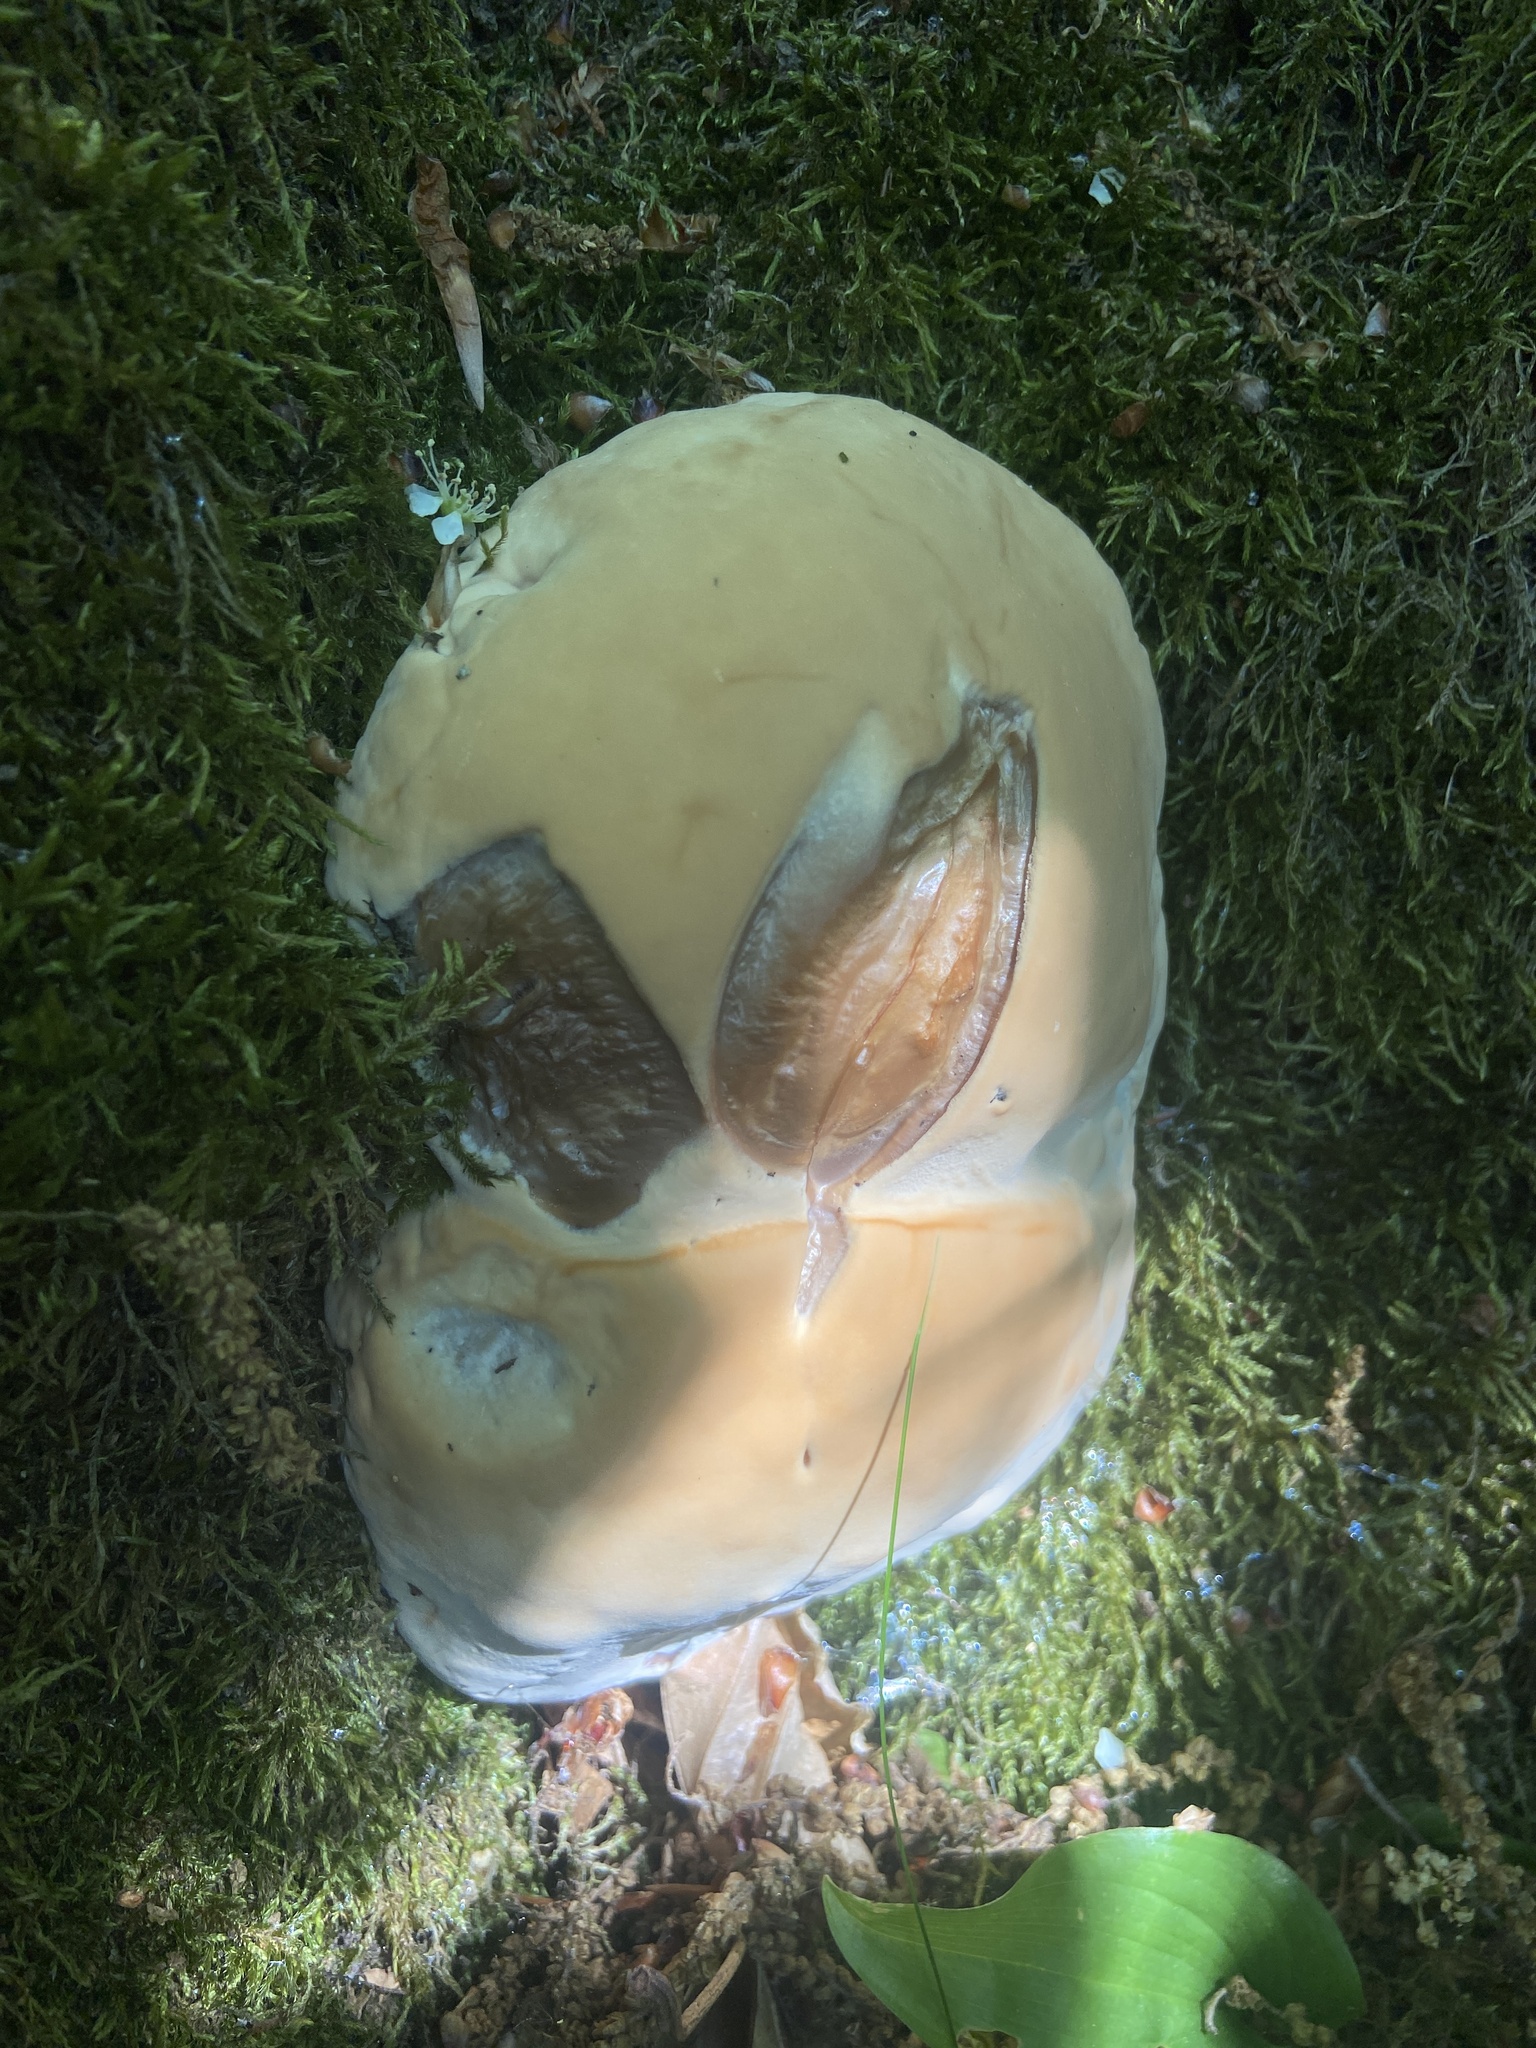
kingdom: Fungi
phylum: Basidiomycota
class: Agaricomycetes
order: Polyporales
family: Polyporaceae
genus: Ganoderma
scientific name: Ganoderma resinaceum
